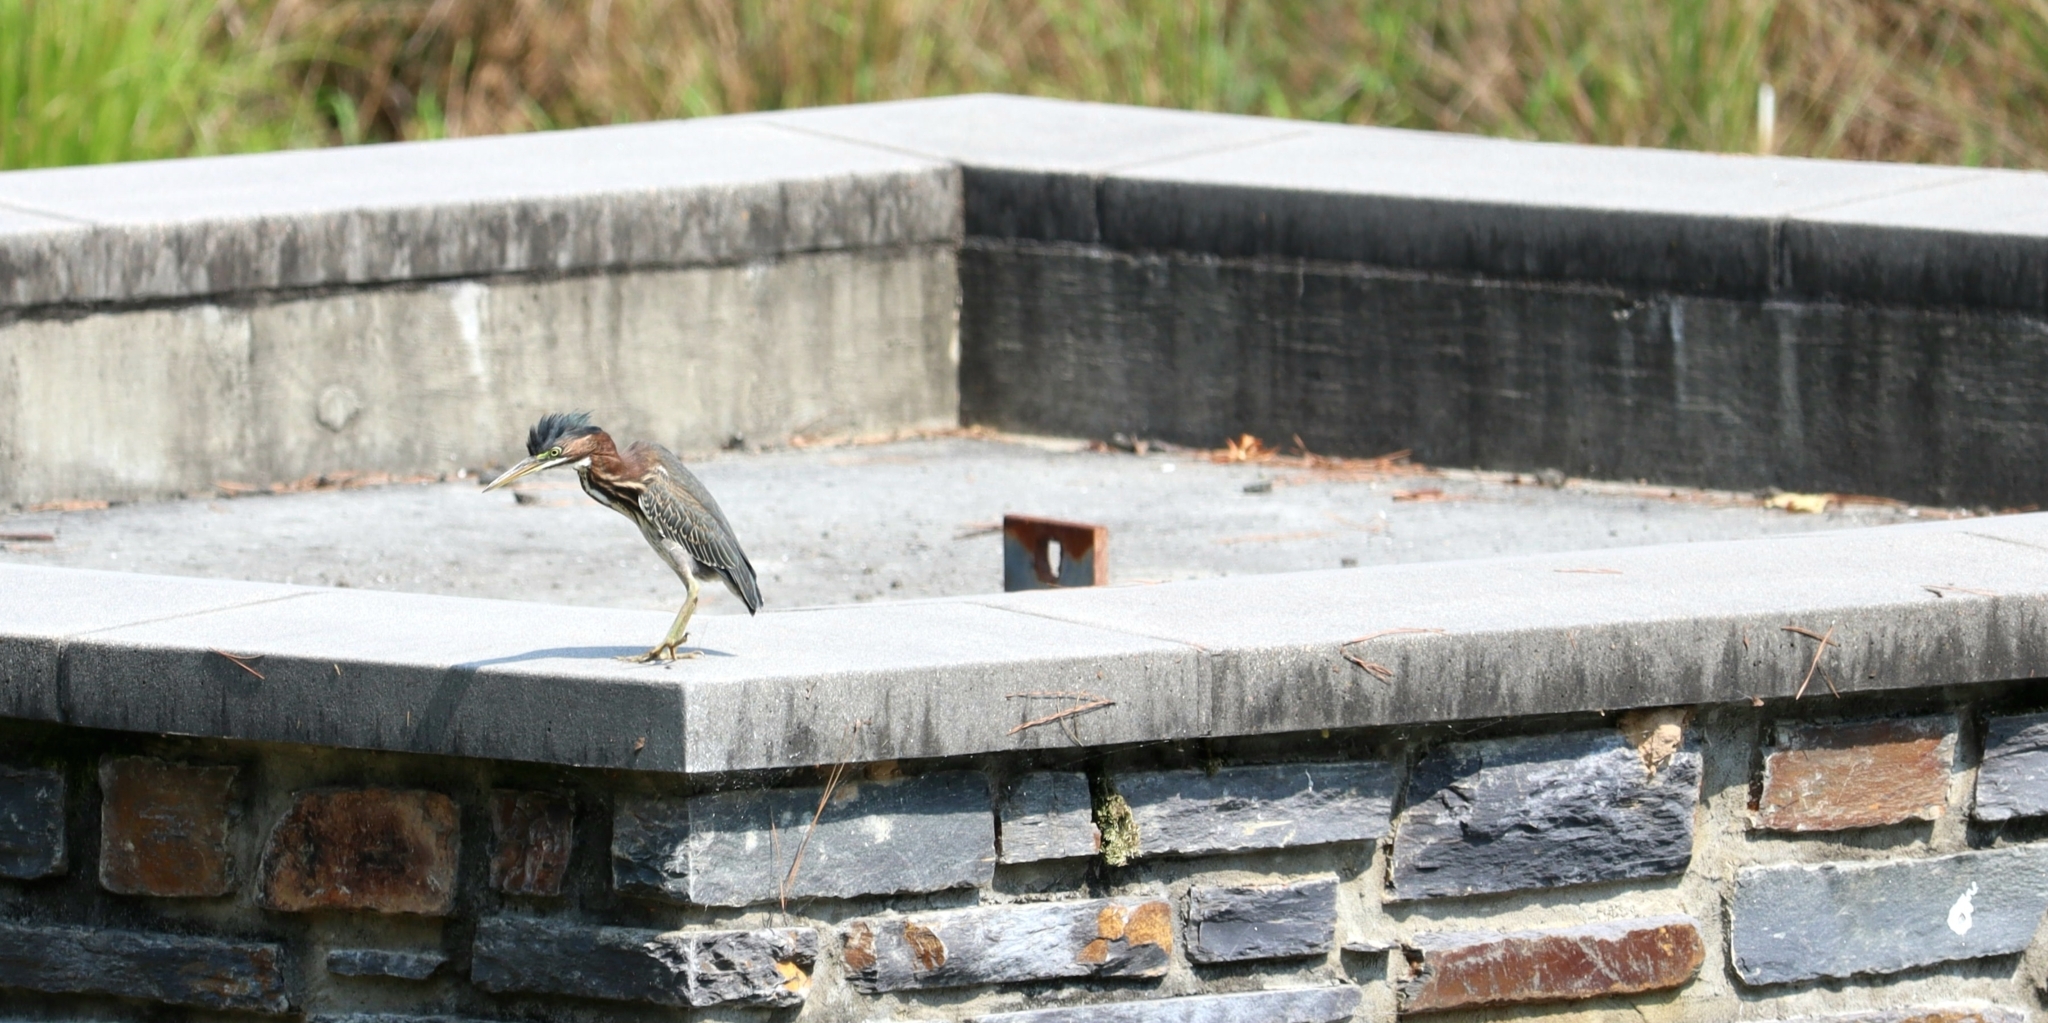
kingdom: Animalia
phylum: Chordata
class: Aves
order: Pelecaniformes
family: Ardeidae
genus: Butorides
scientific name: Butorides virescens
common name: Green heron
